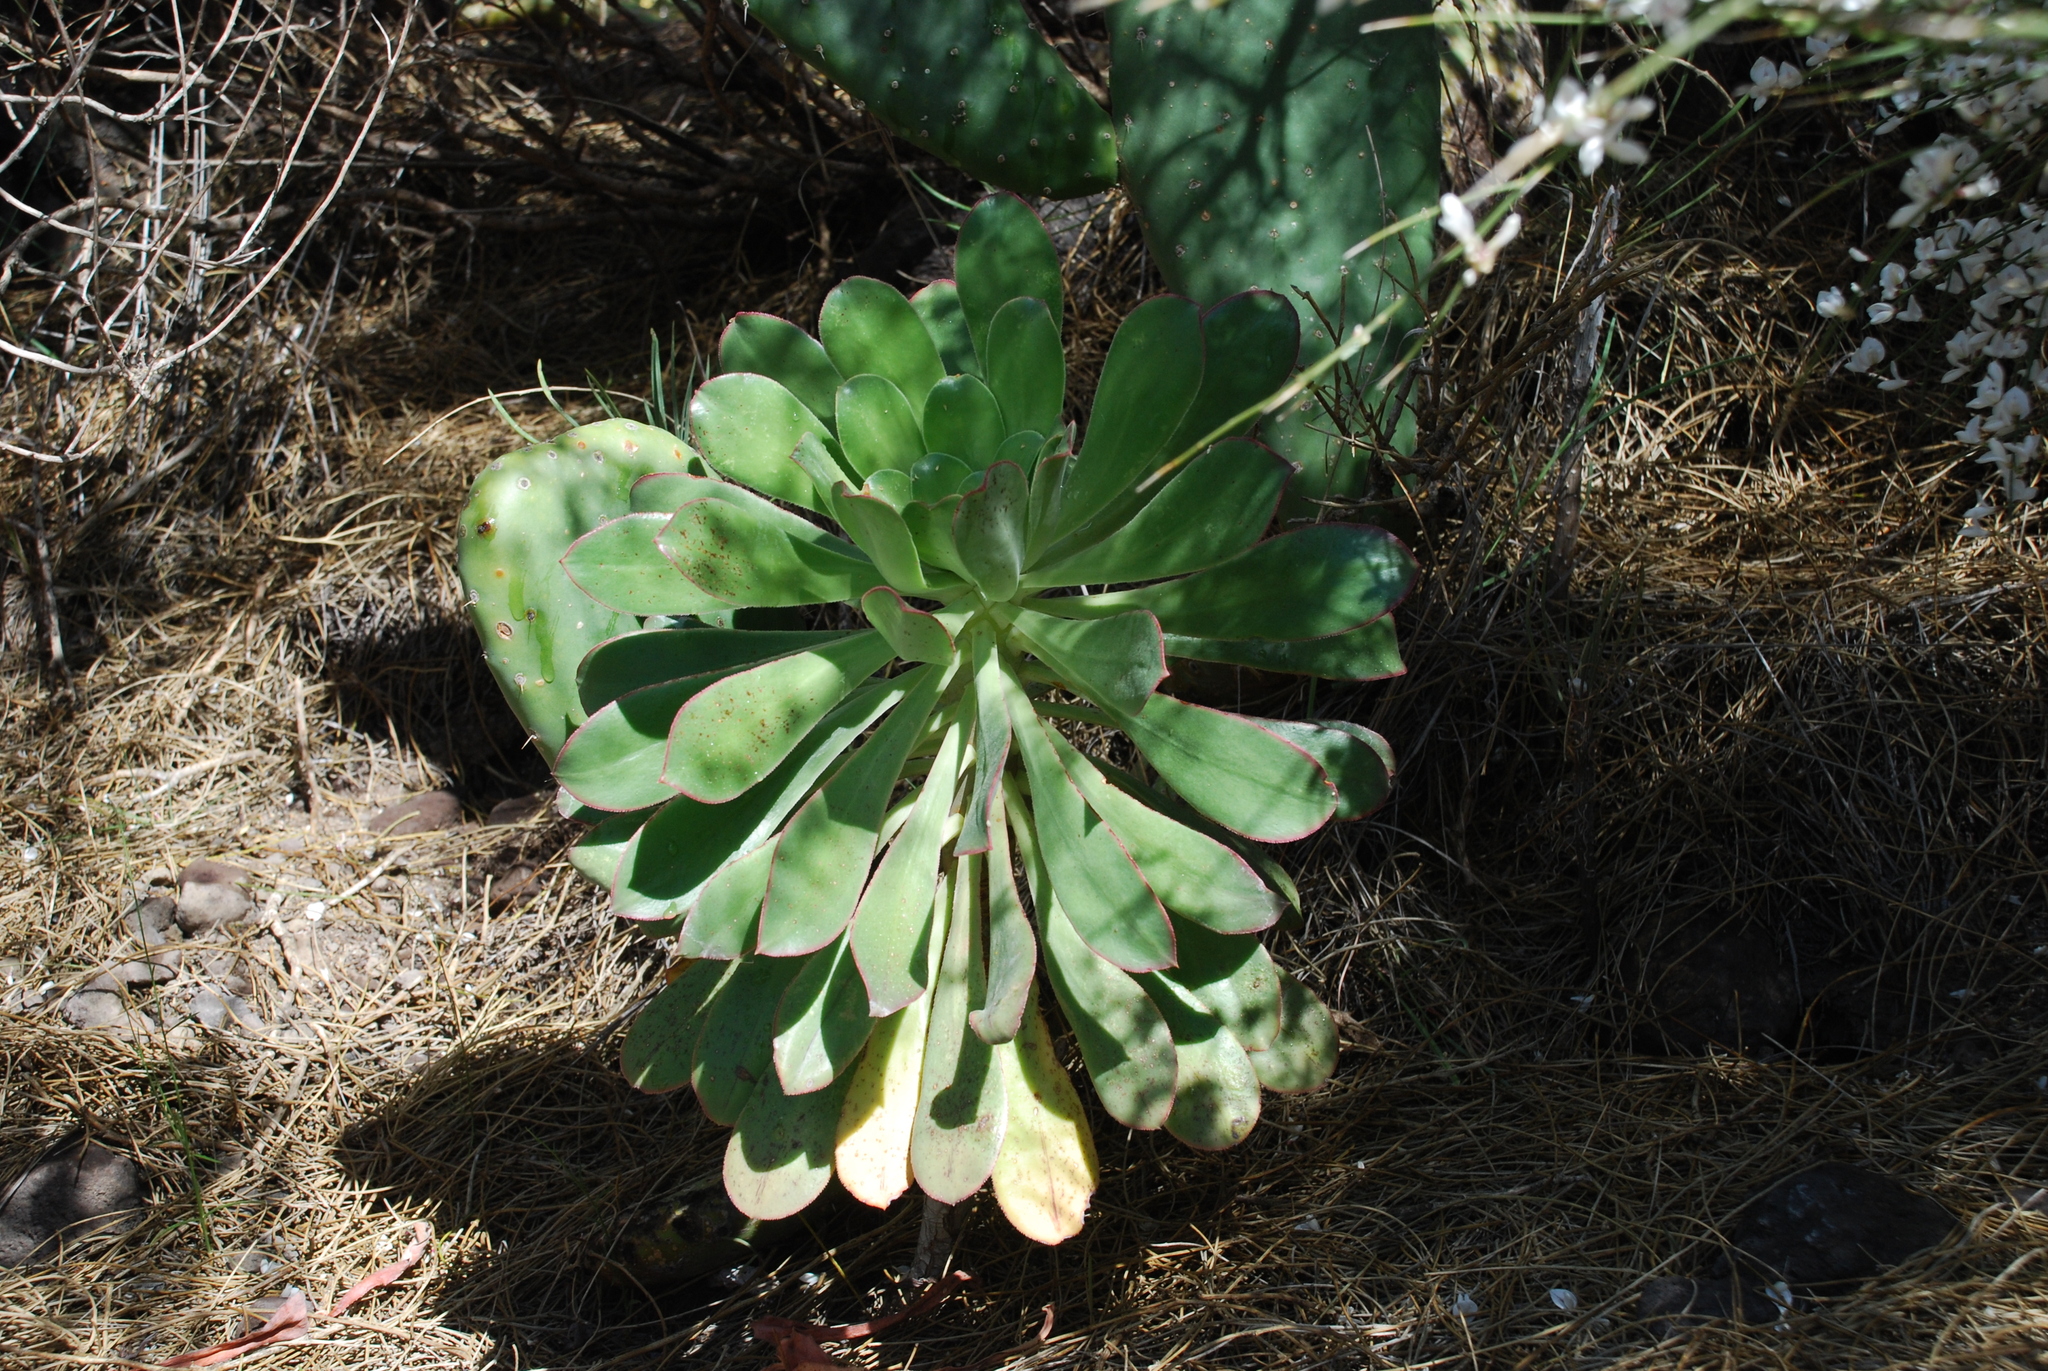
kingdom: Plantae
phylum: Tracheophyta
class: Magnoliopsida
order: Saxifragales
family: Crassulaceae
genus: Aeonium
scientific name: Aeonium
